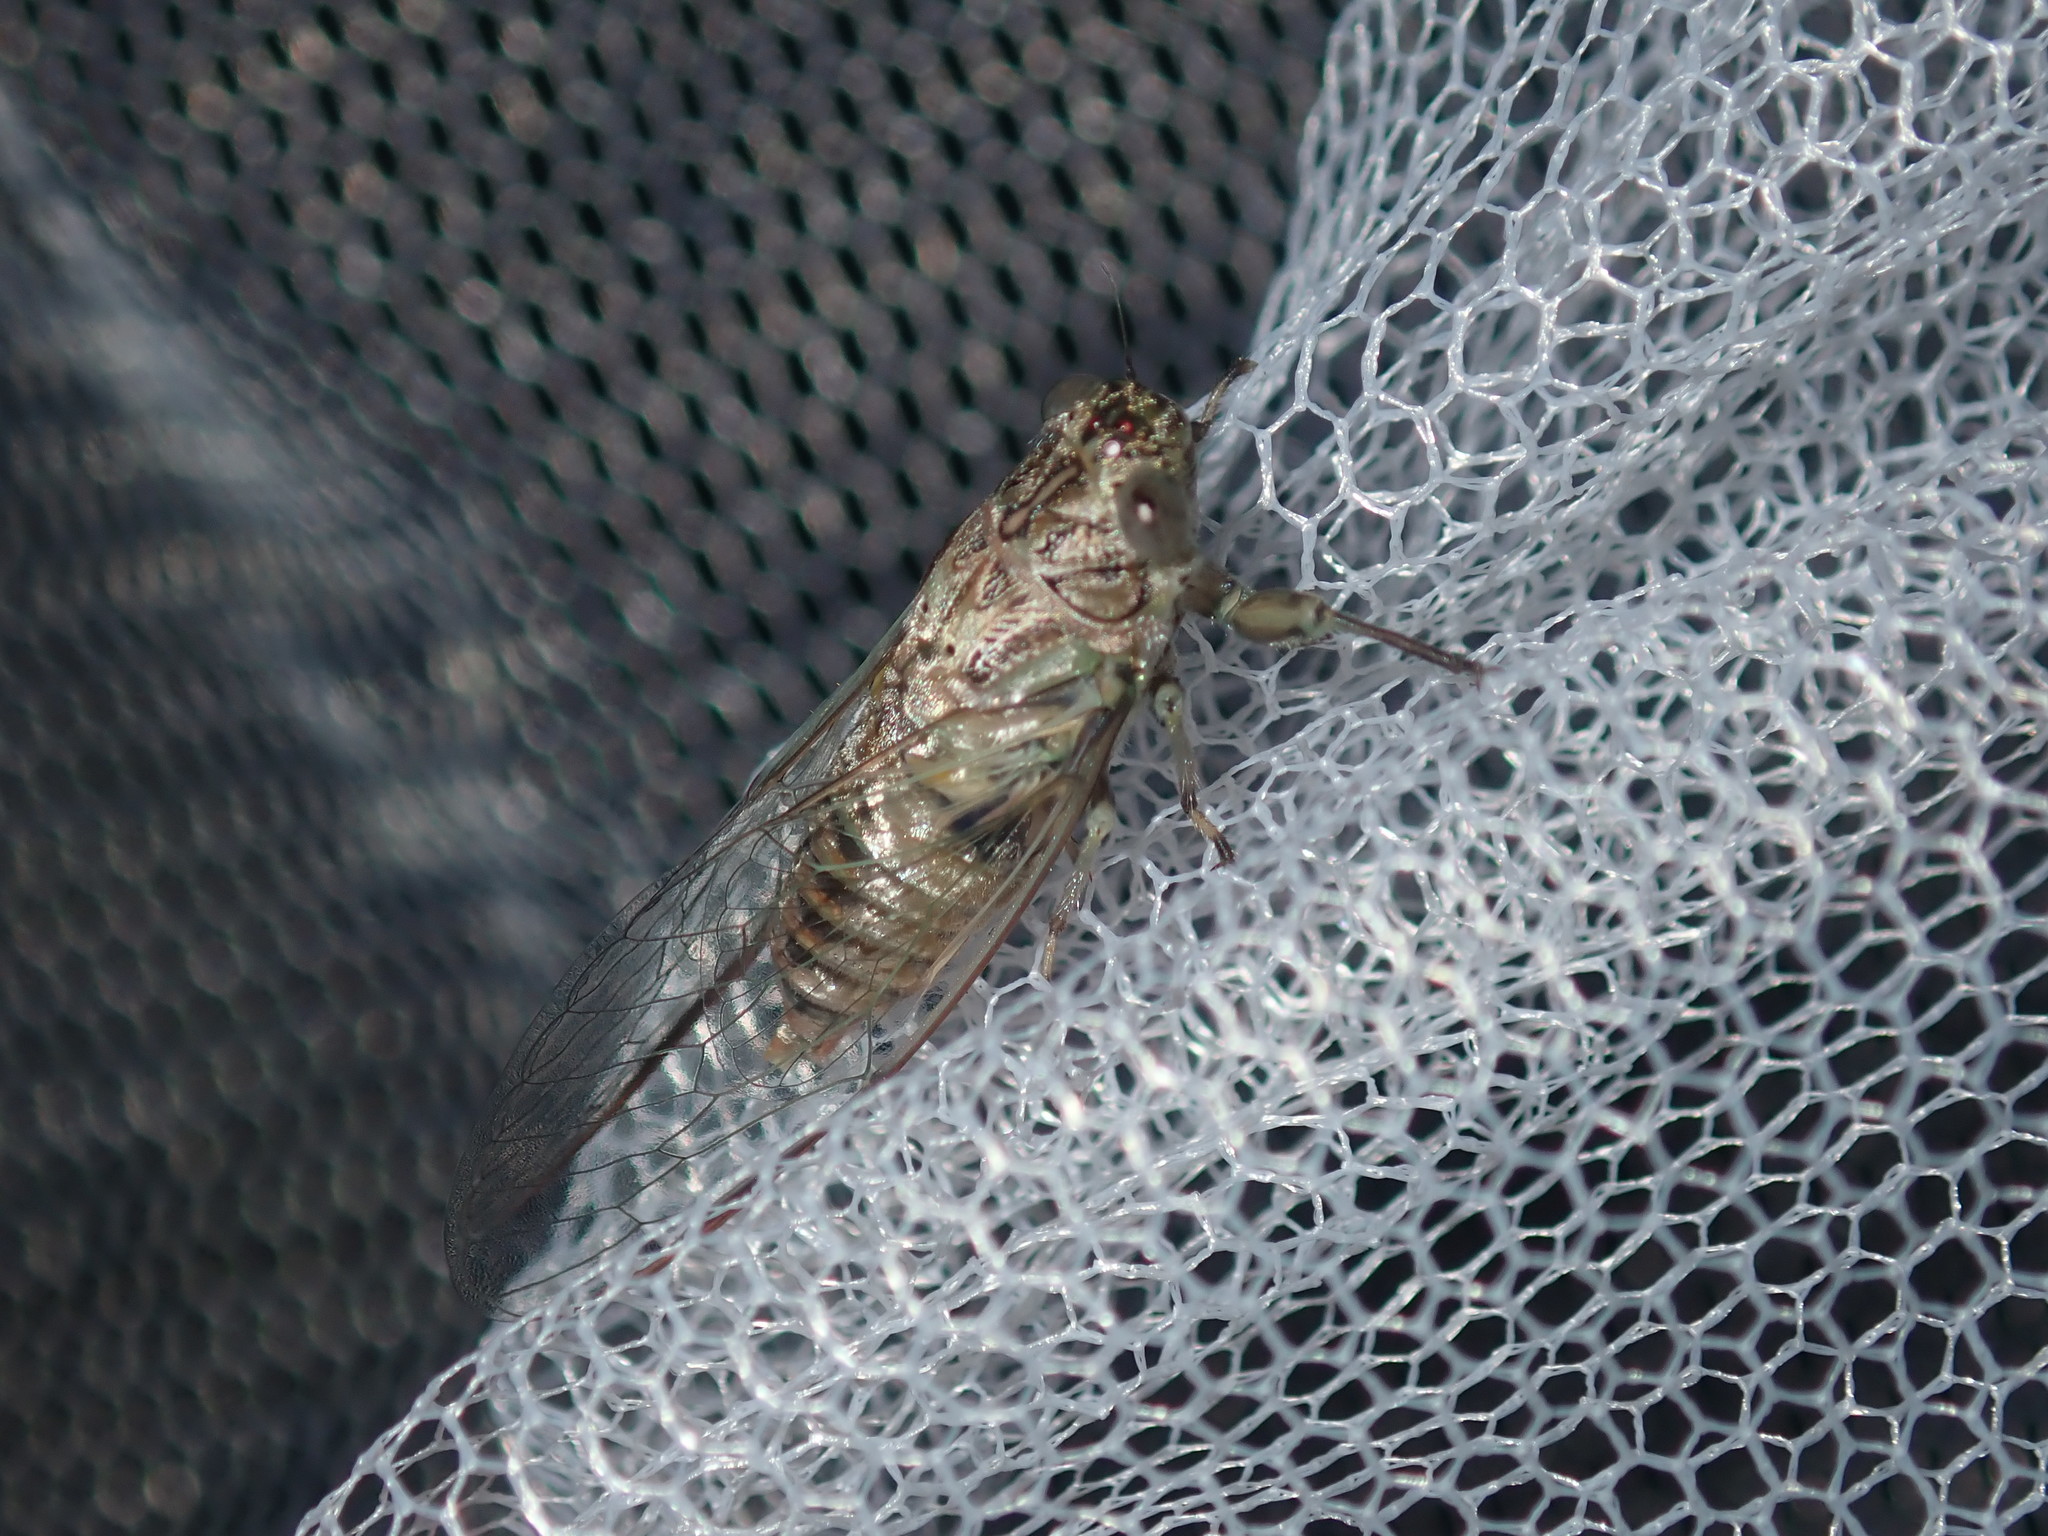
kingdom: Animalia
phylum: Arthropoda
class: Insecta
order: Hemiptera
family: Cicadidae
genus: Telmapsalta
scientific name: Telmapsalta hackeri
